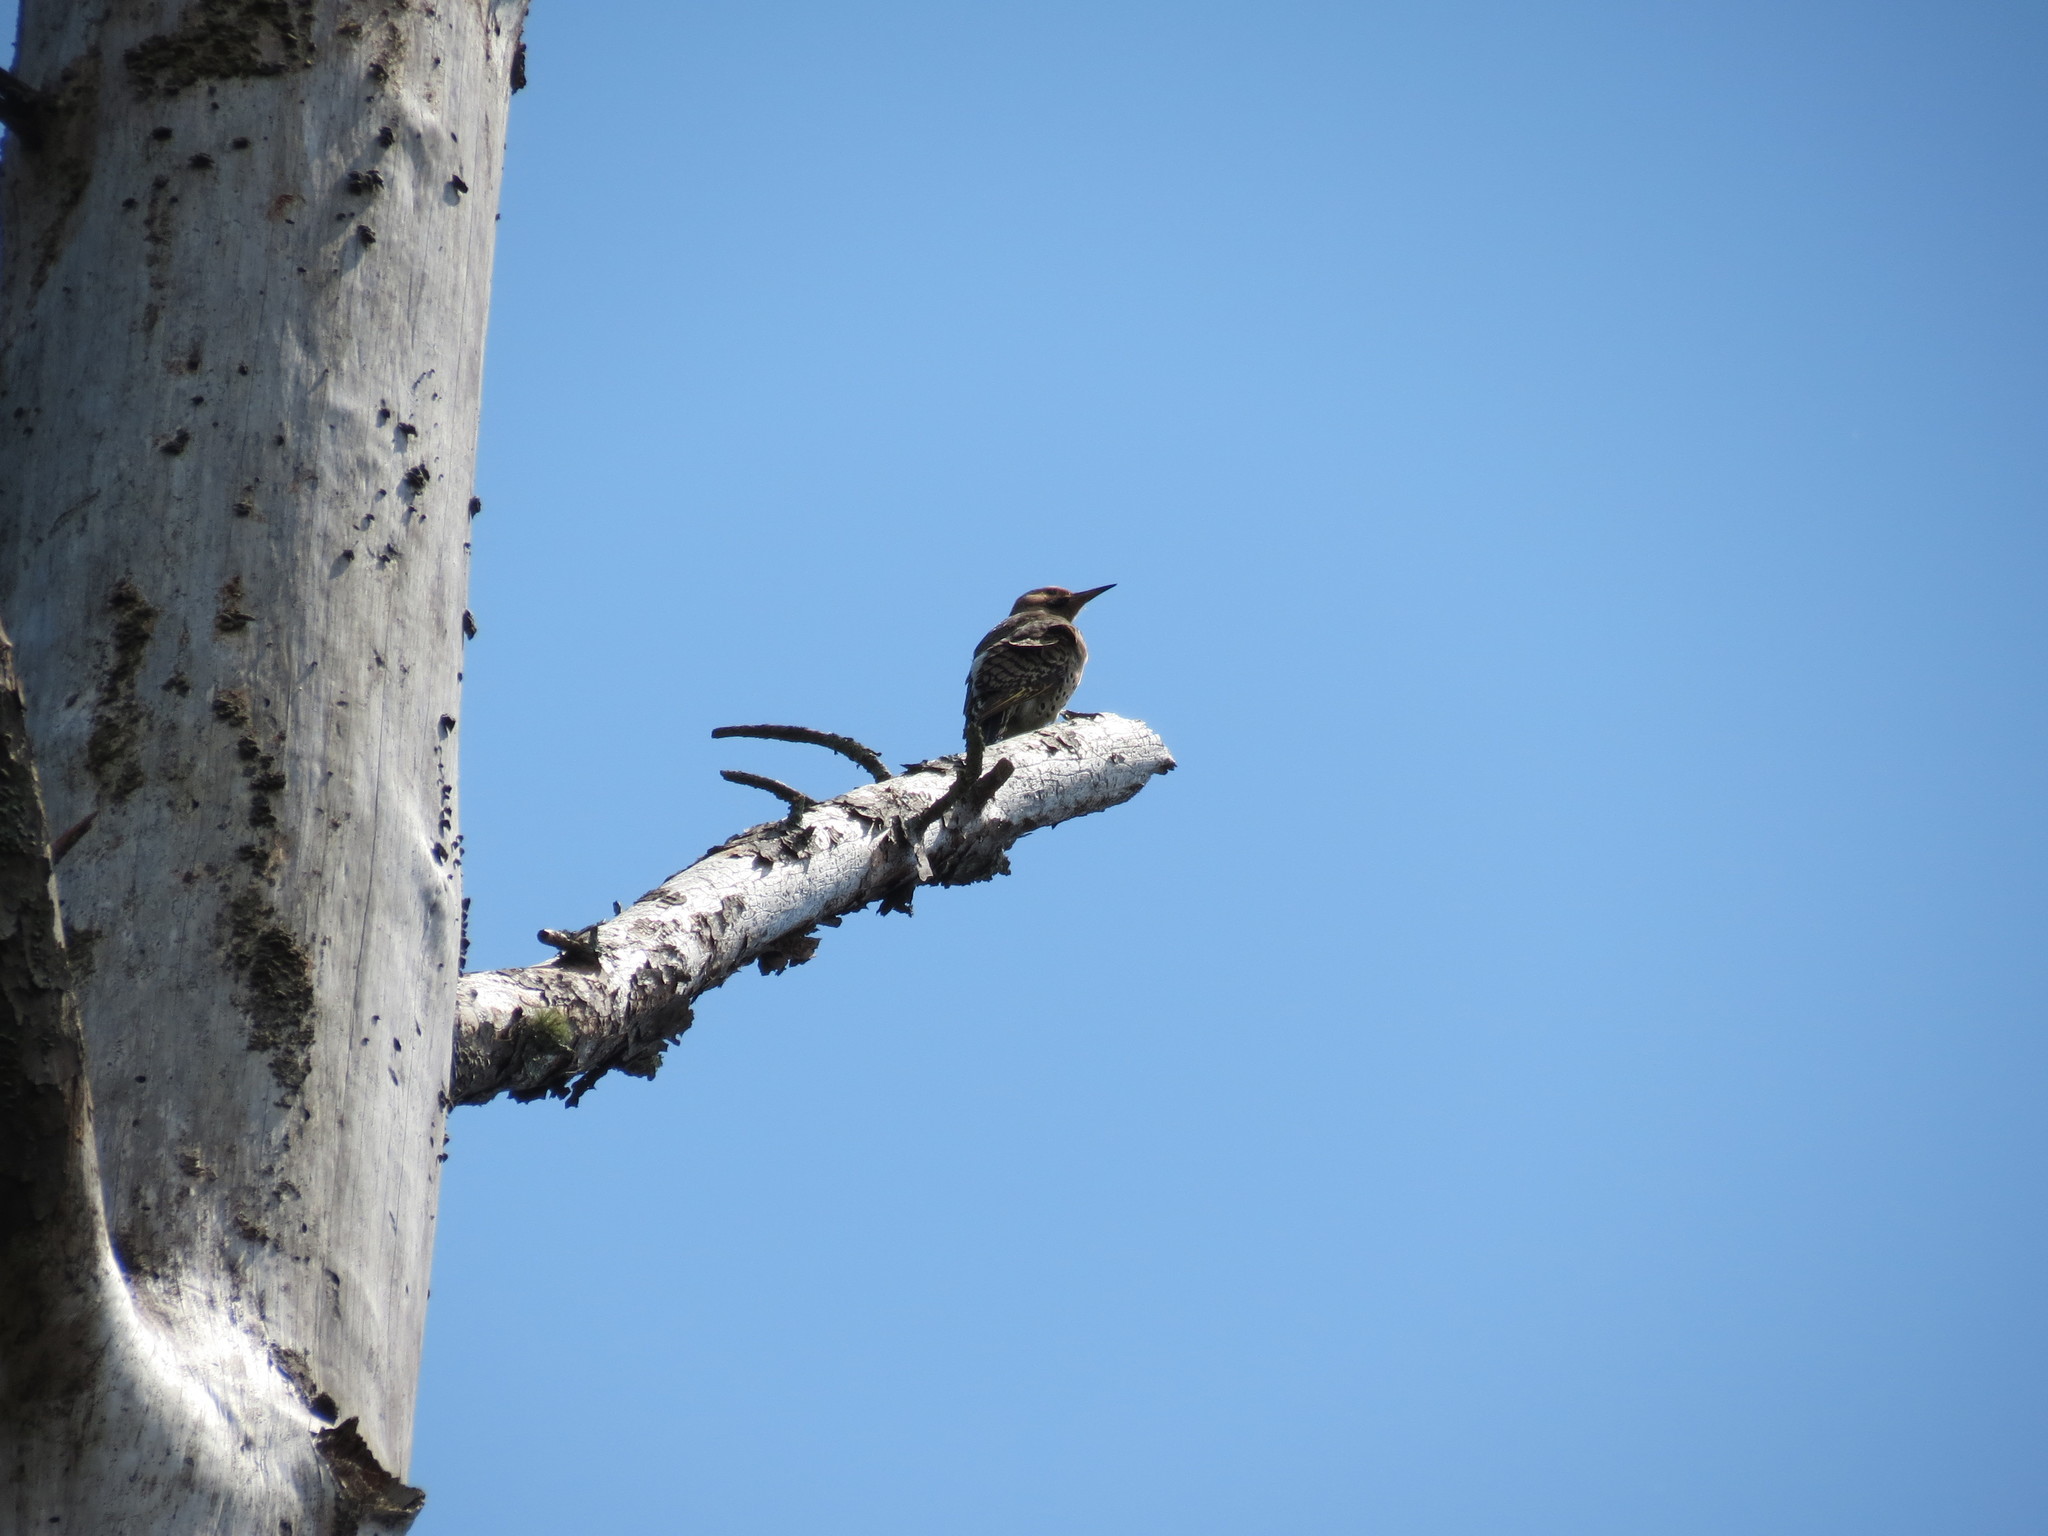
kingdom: Animalia
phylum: Chordata
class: Aves
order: Piciformes
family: Picidae
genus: Colaptes
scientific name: Colaptes auratus
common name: Northern flicker
